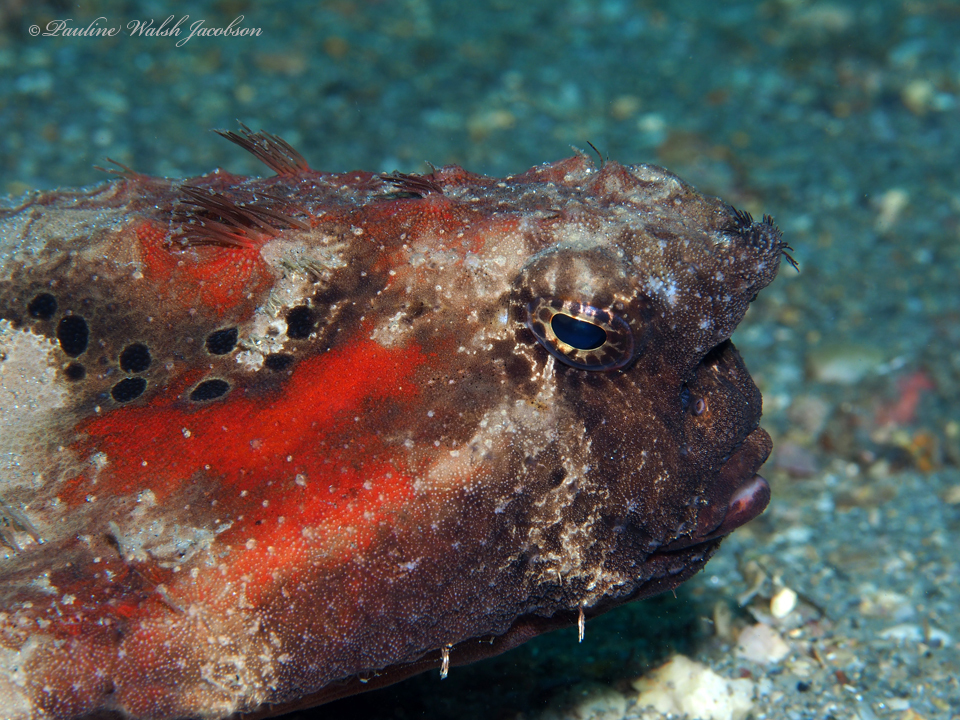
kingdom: Animalia
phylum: Chordata
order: Lophiiformes
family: Ogcocephalidae
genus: Ogcocephalus
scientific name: Ogcocephalus nasutus
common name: Shortnose batfish
